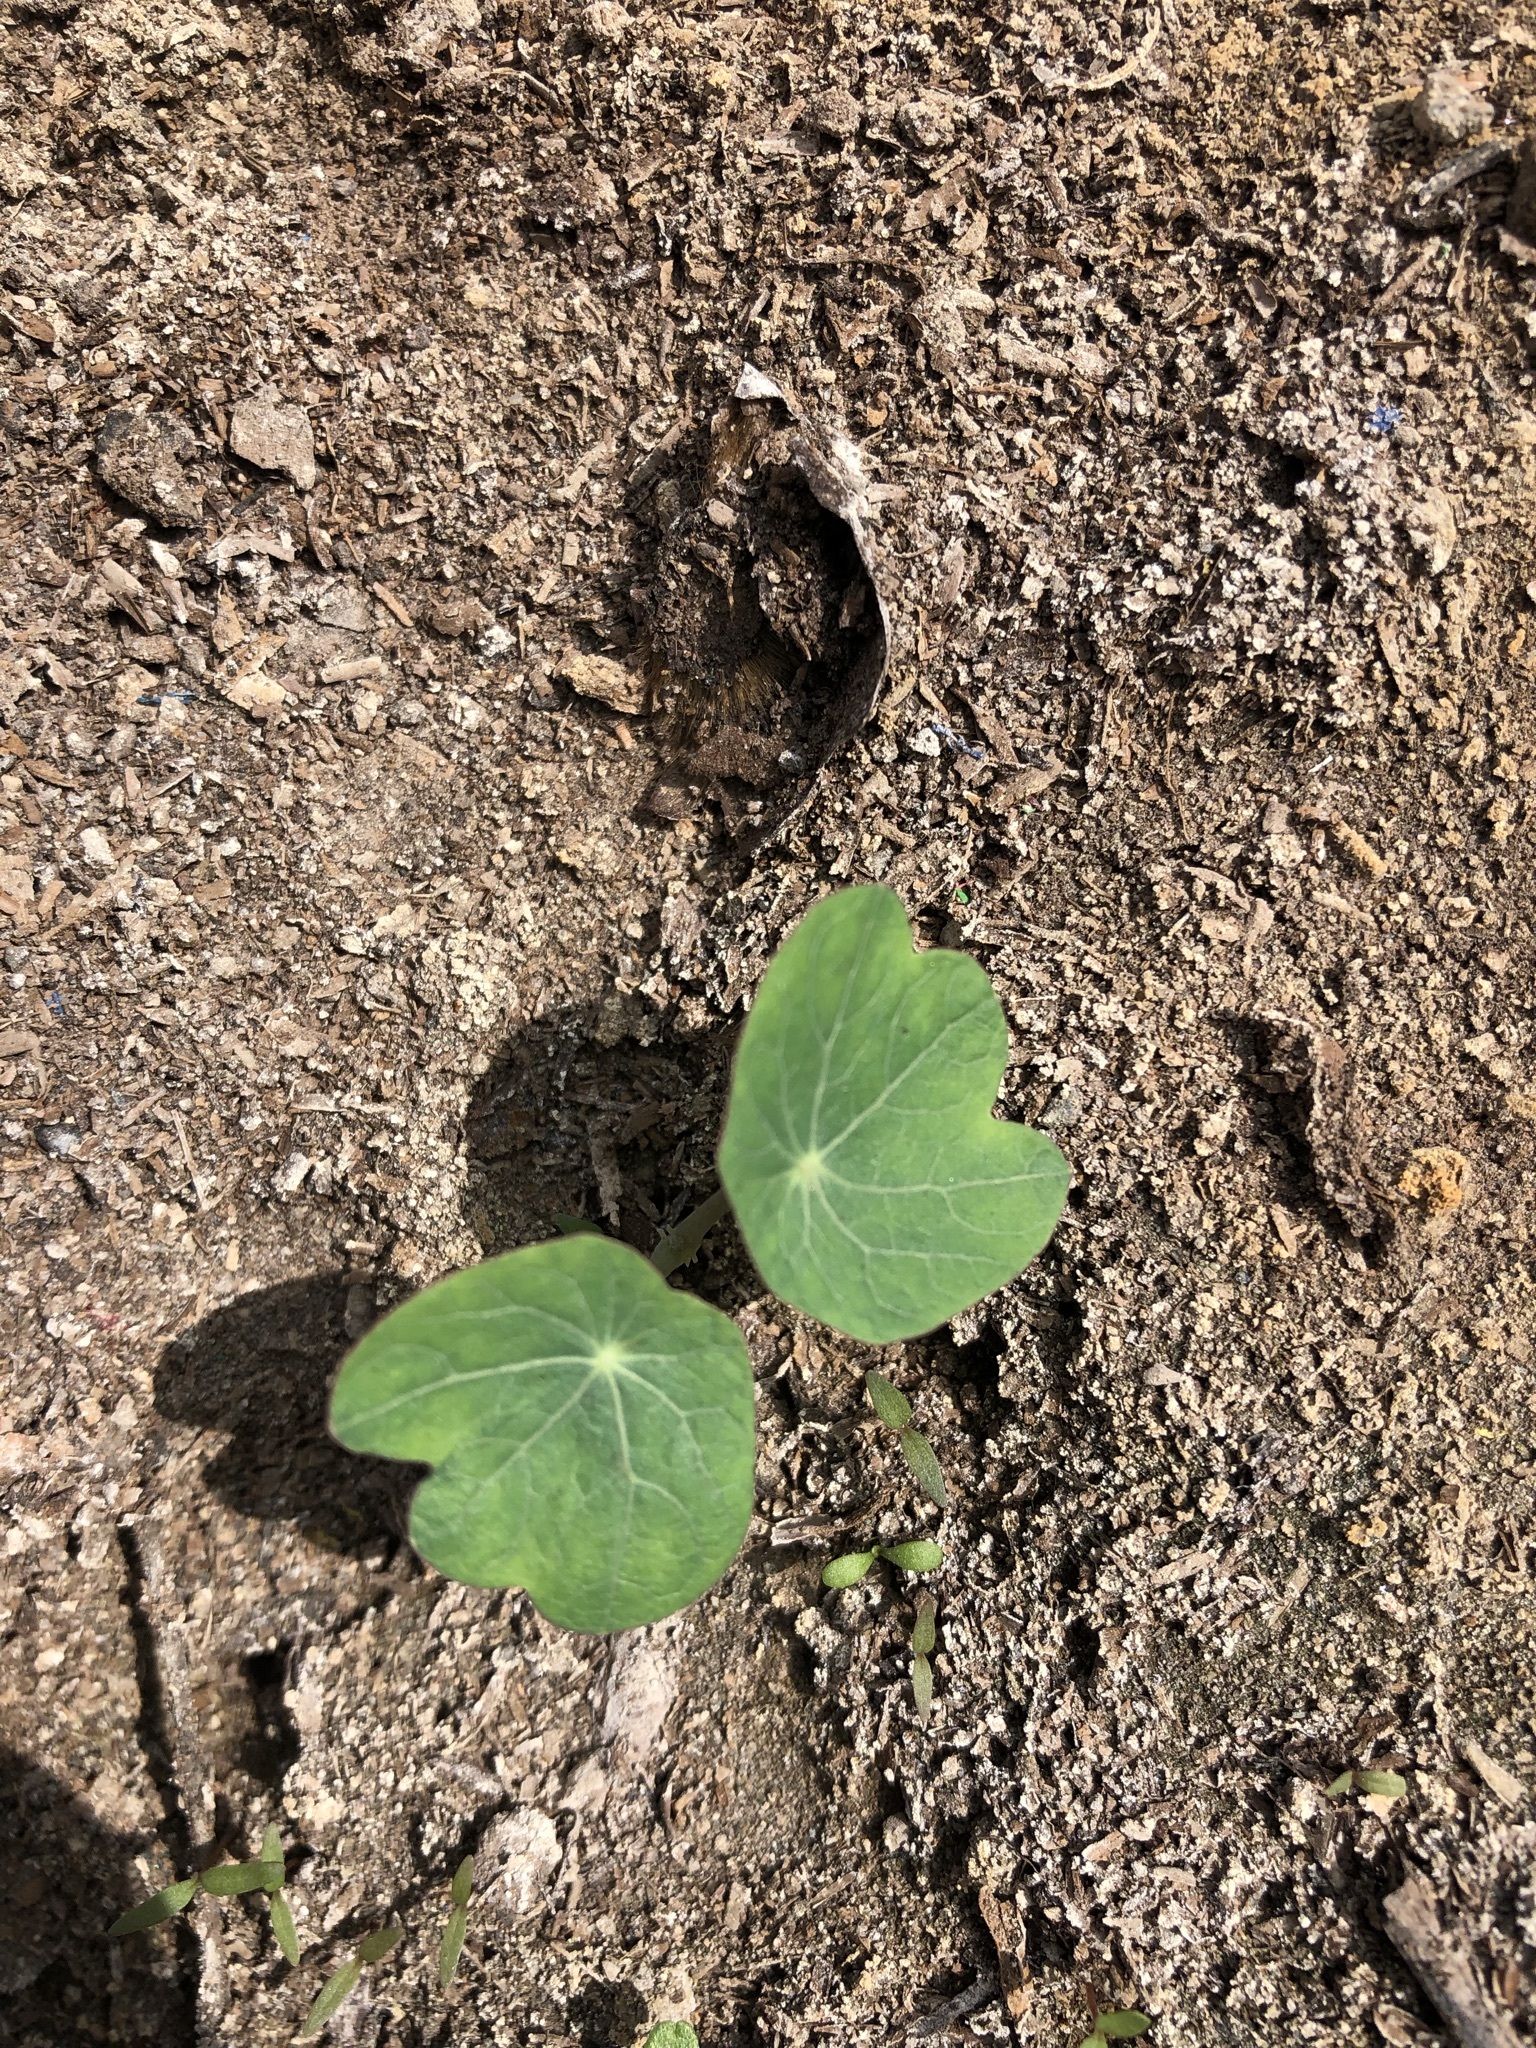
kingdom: Plantae
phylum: Tracheophyta
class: Magnoliopsida
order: Brassicales
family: Tropaeolaceae
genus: Tropaeolum
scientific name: Tropaeolum majus
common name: Nasturtium
